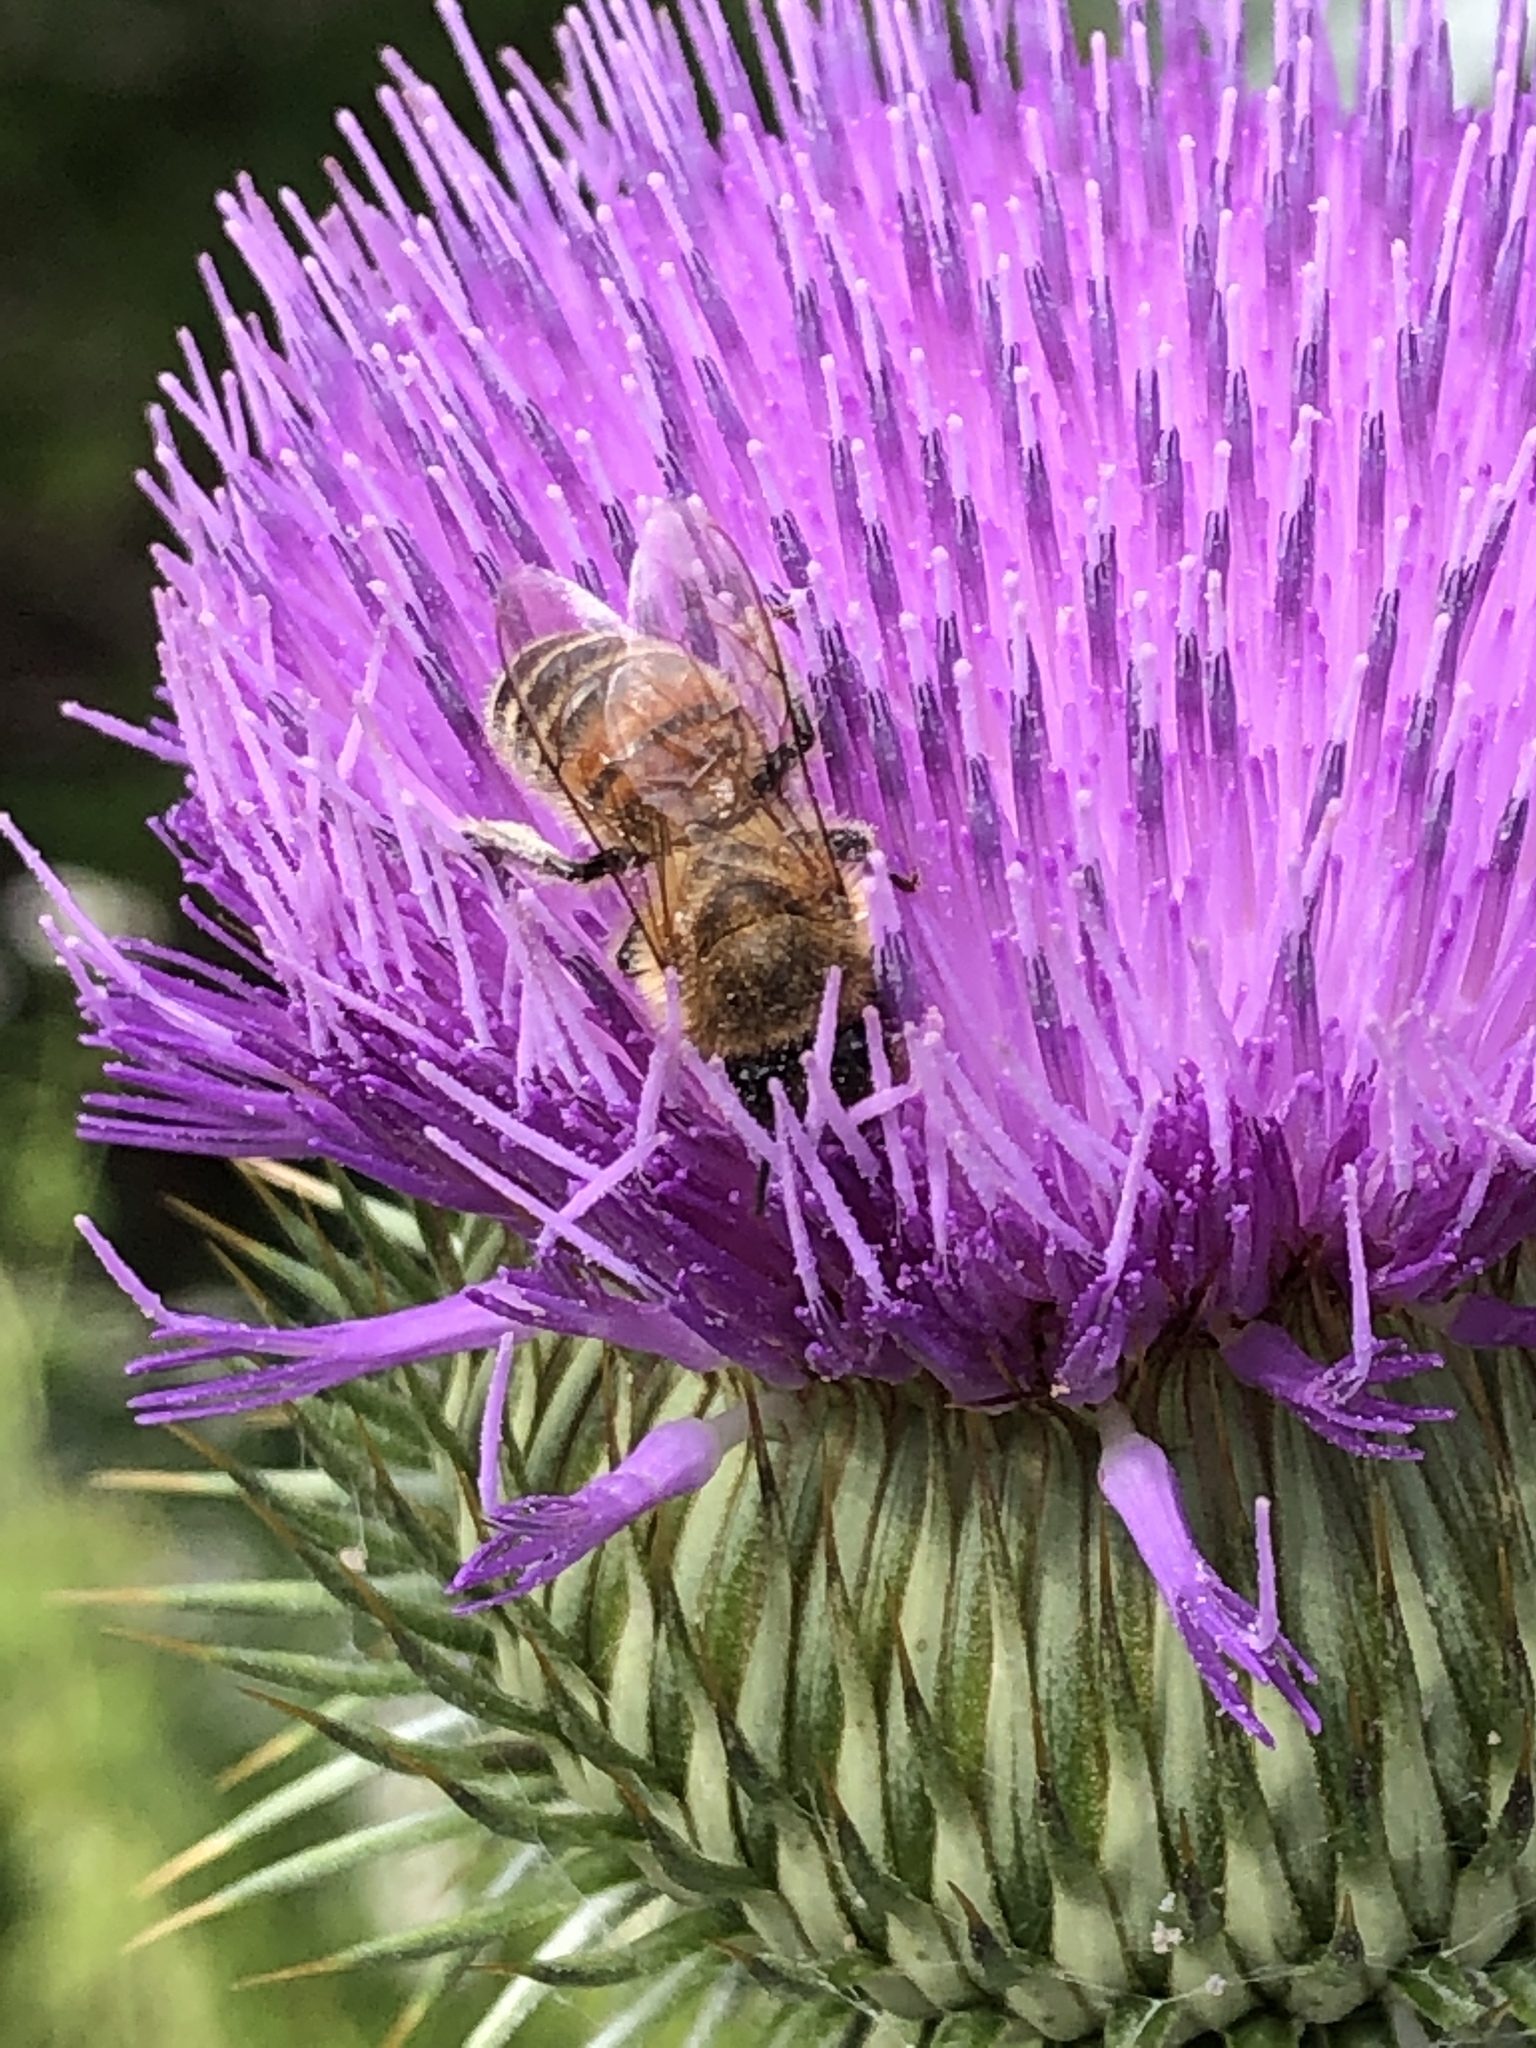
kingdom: Animalia
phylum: Arthropoda
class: Insecta
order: Hymenoptera
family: Apidae
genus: Apis
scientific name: Apis mellifera
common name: Honey bee
